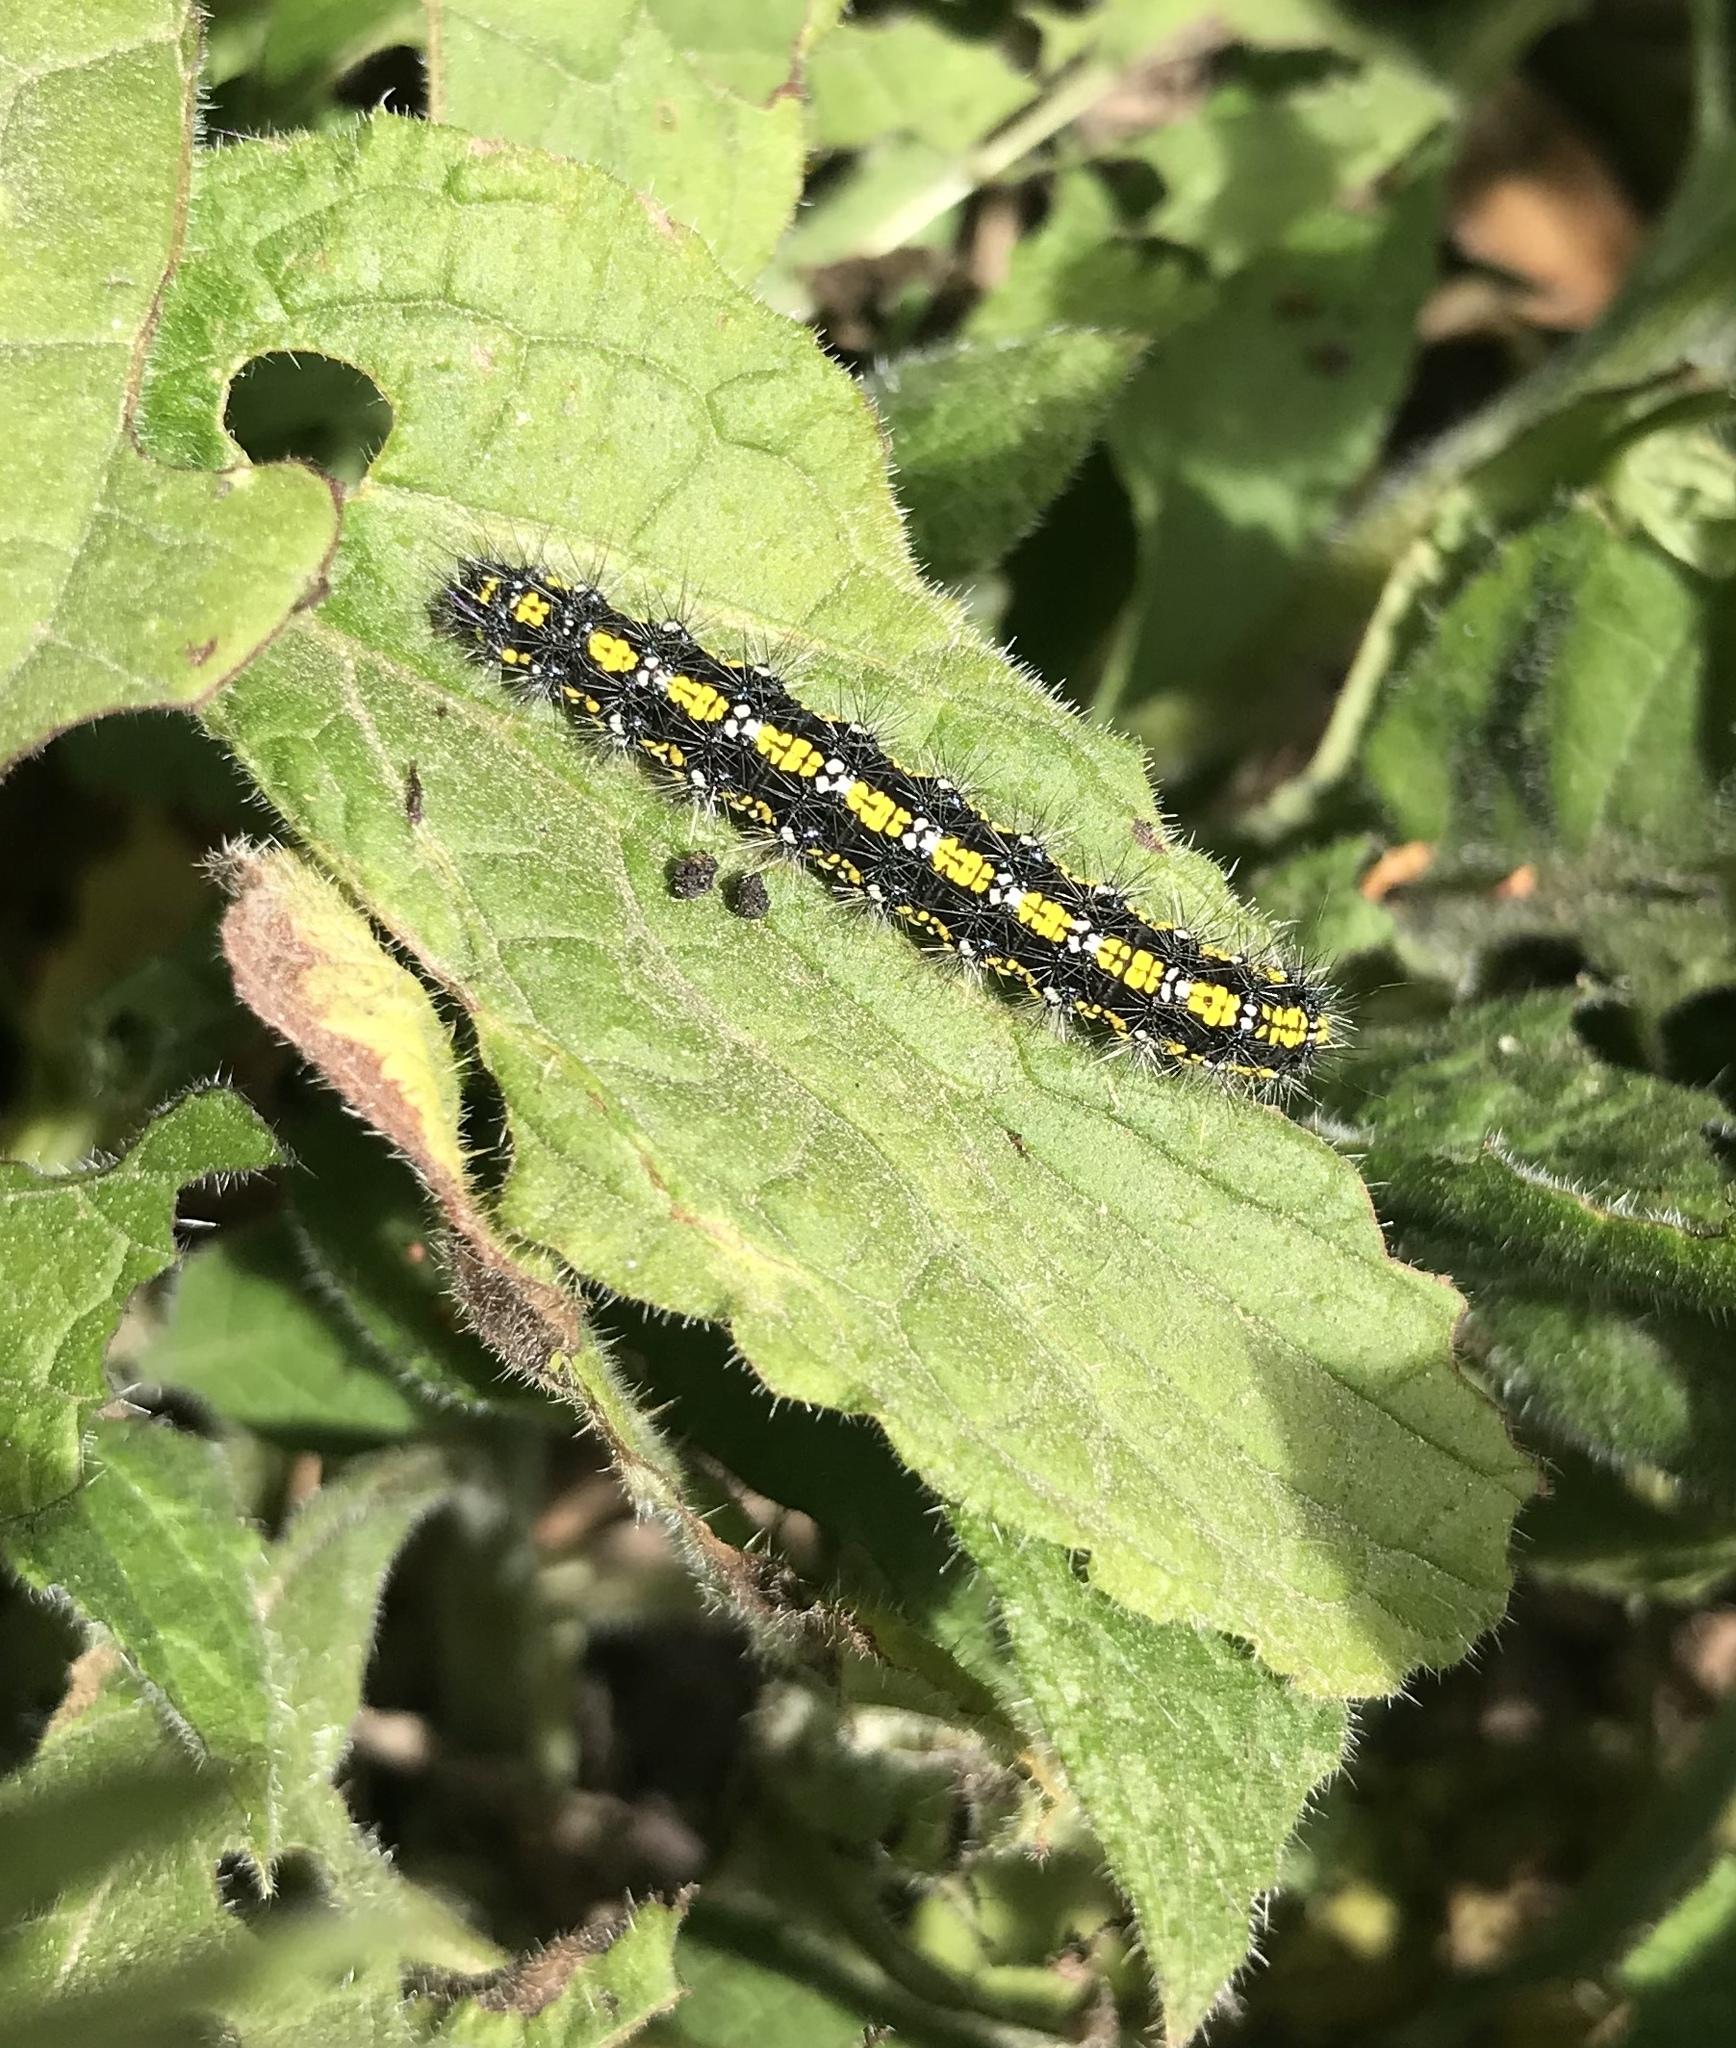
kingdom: Animalia
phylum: Arthropoda
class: Insecta
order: Lepidoptera
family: Erebidae
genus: Callimorpha
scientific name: Callimorpha dominula
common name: Scarlet tiger
